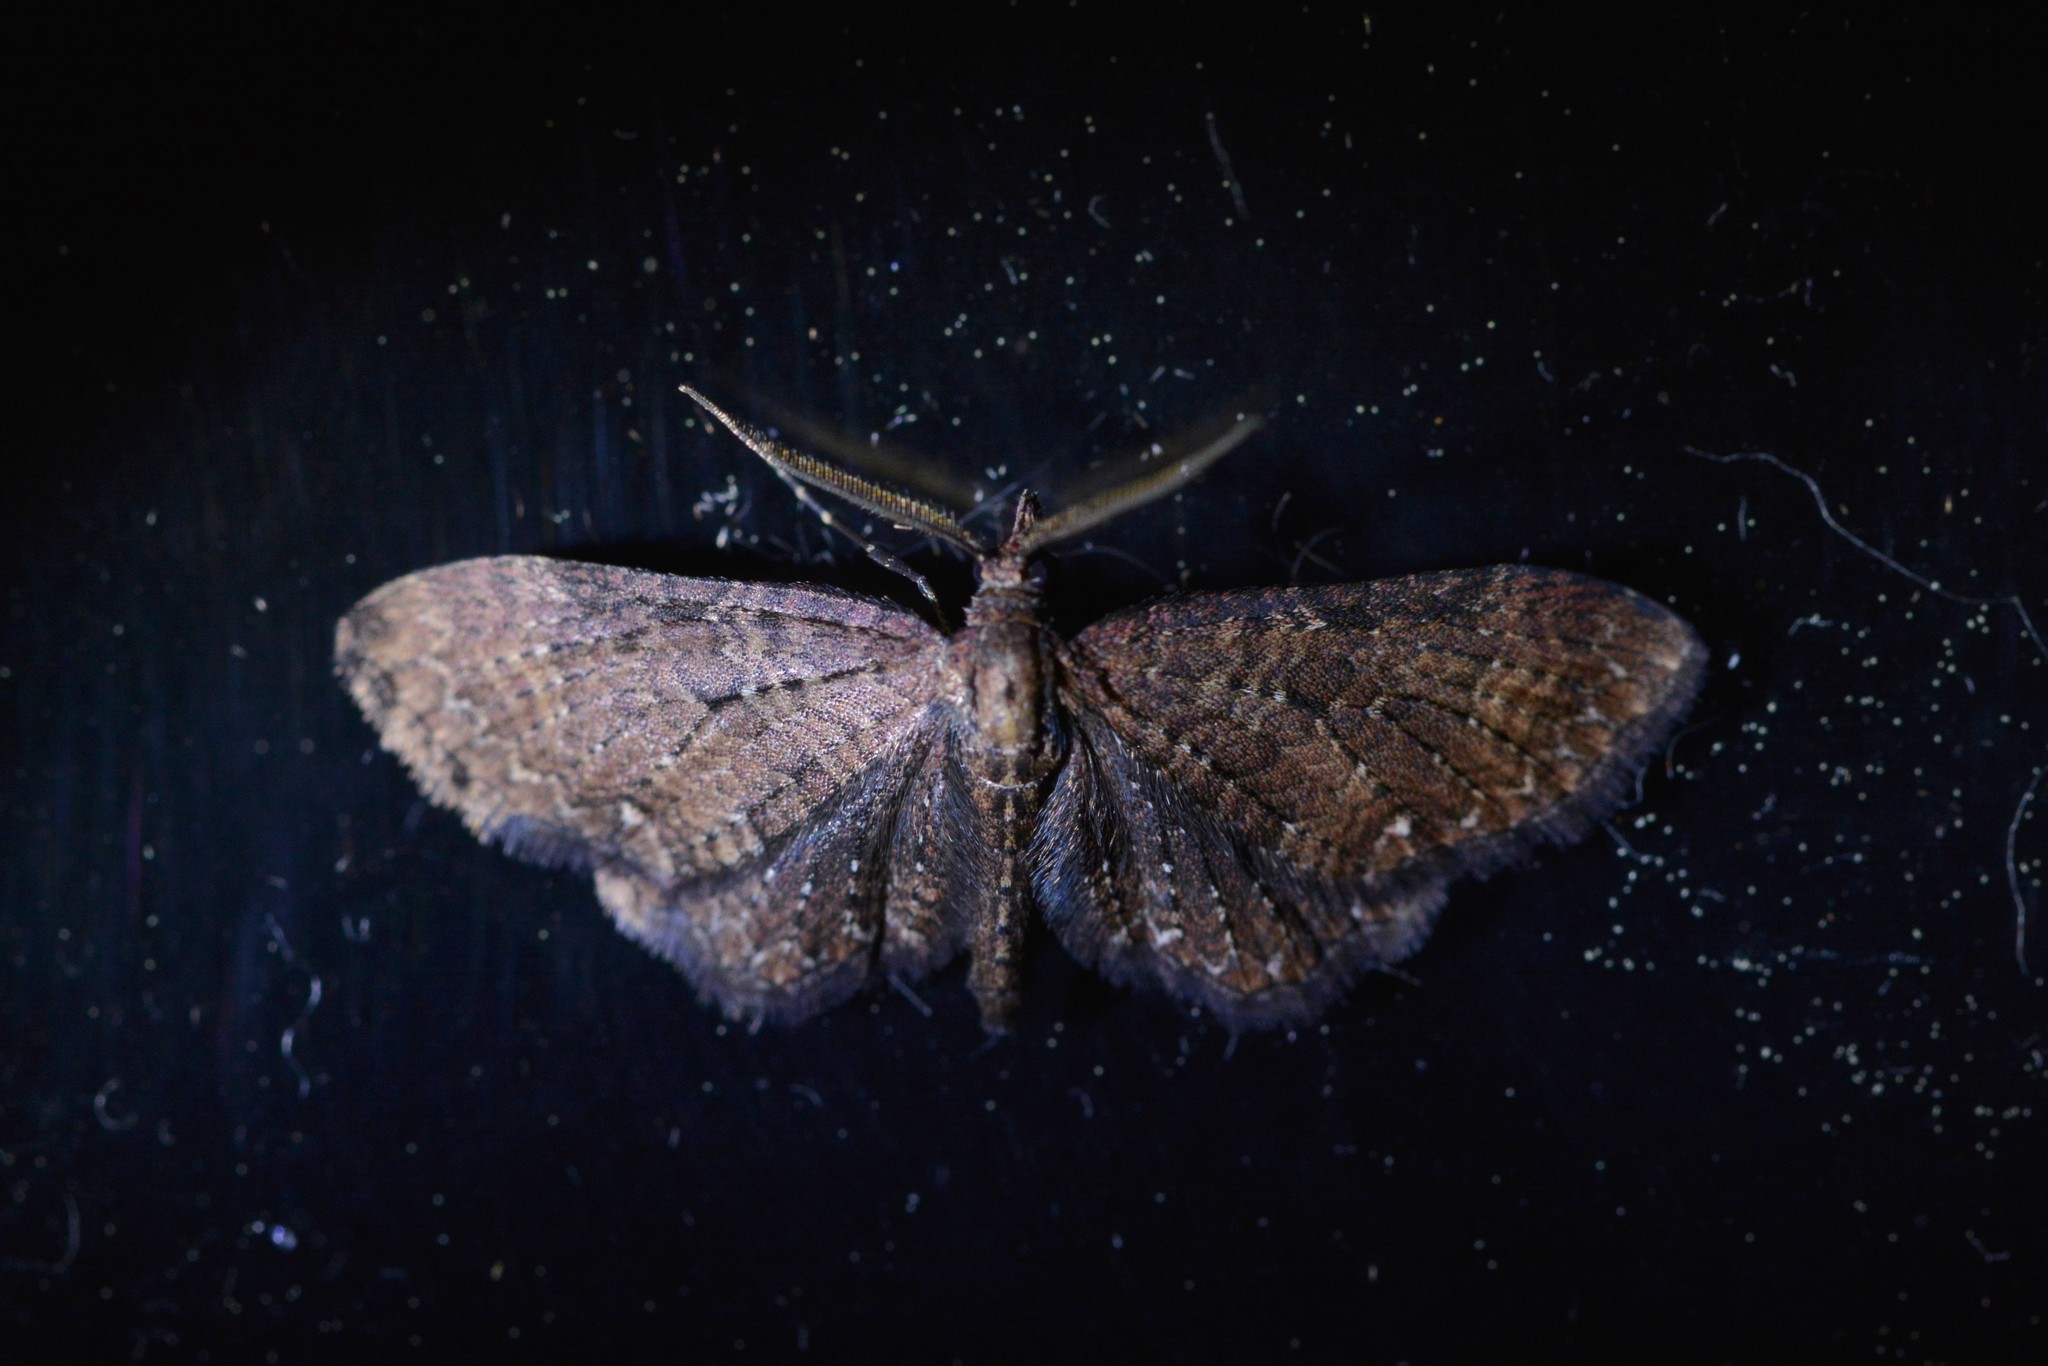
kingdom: Animalia
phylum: Arthropoda
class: Insecta
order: Lepidoptera
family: Geometridae
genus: Pasiphila
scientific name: Pasiphila dryas
